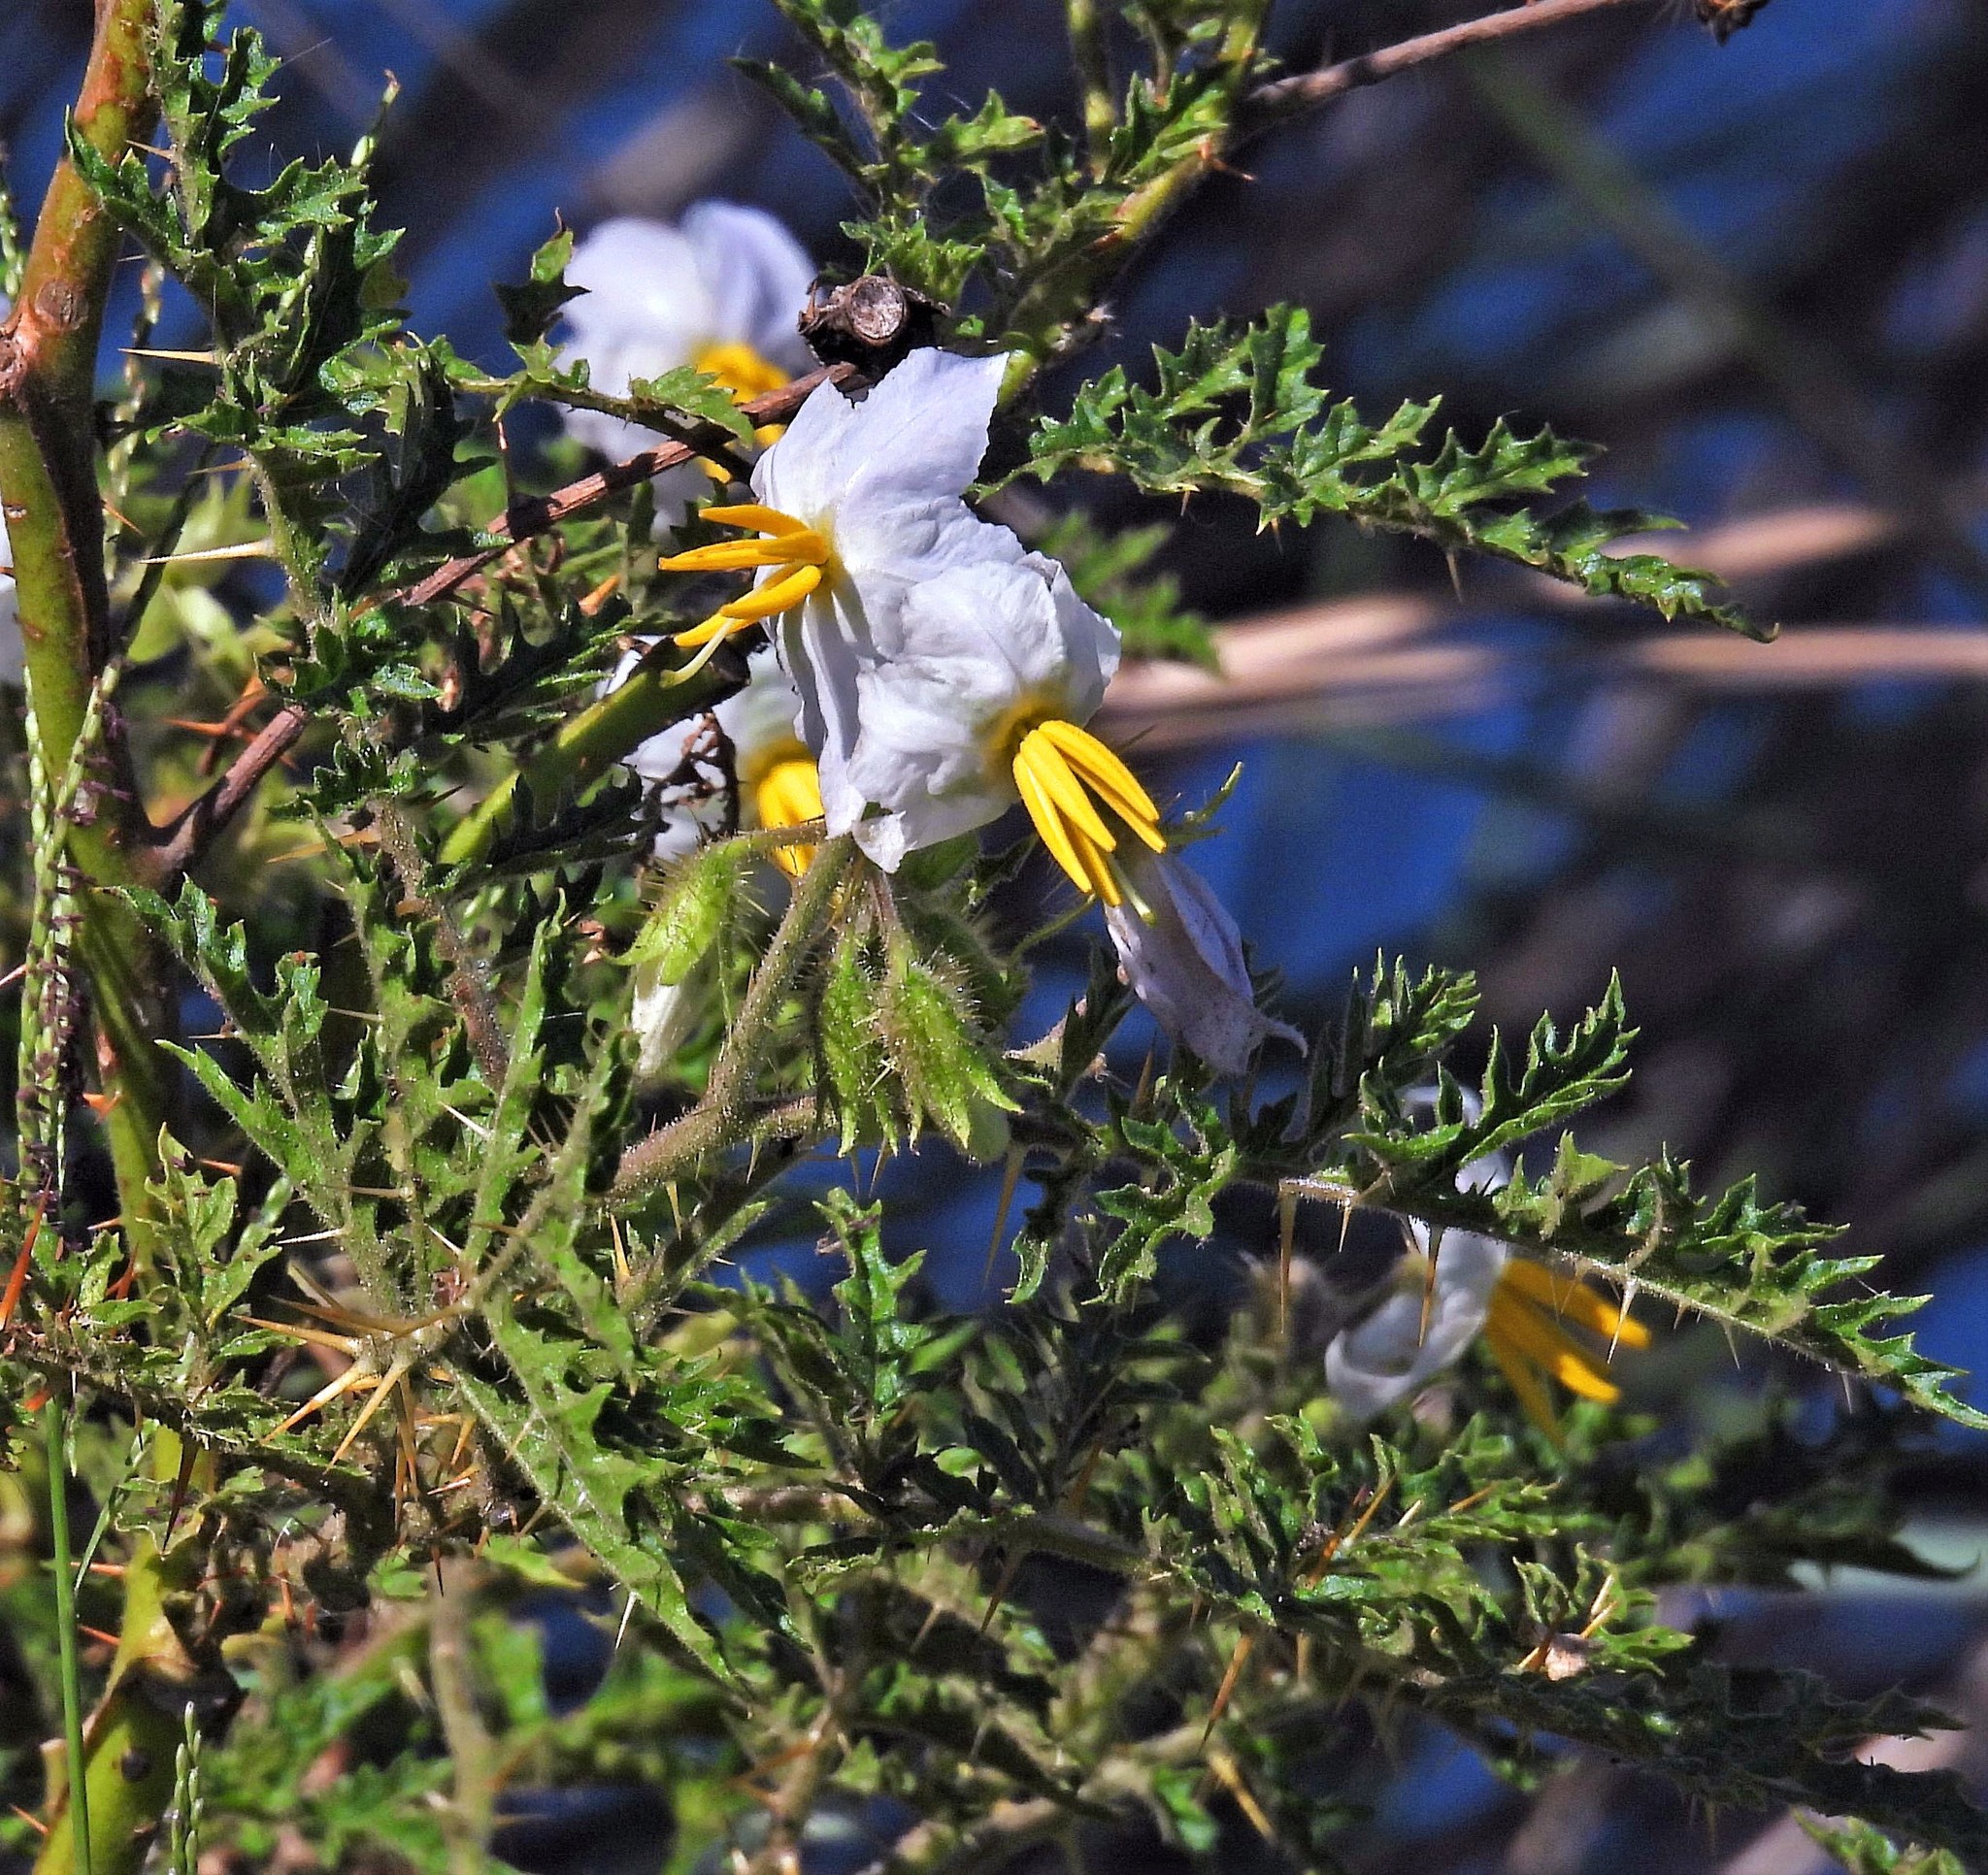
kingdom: Plantae
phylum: Tracheophyta
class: Magnoliopsida
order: Solanales
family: Solanaceae
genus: Solanum
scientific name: Solanum sisymbriifolium
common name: Red buffalo-bur
